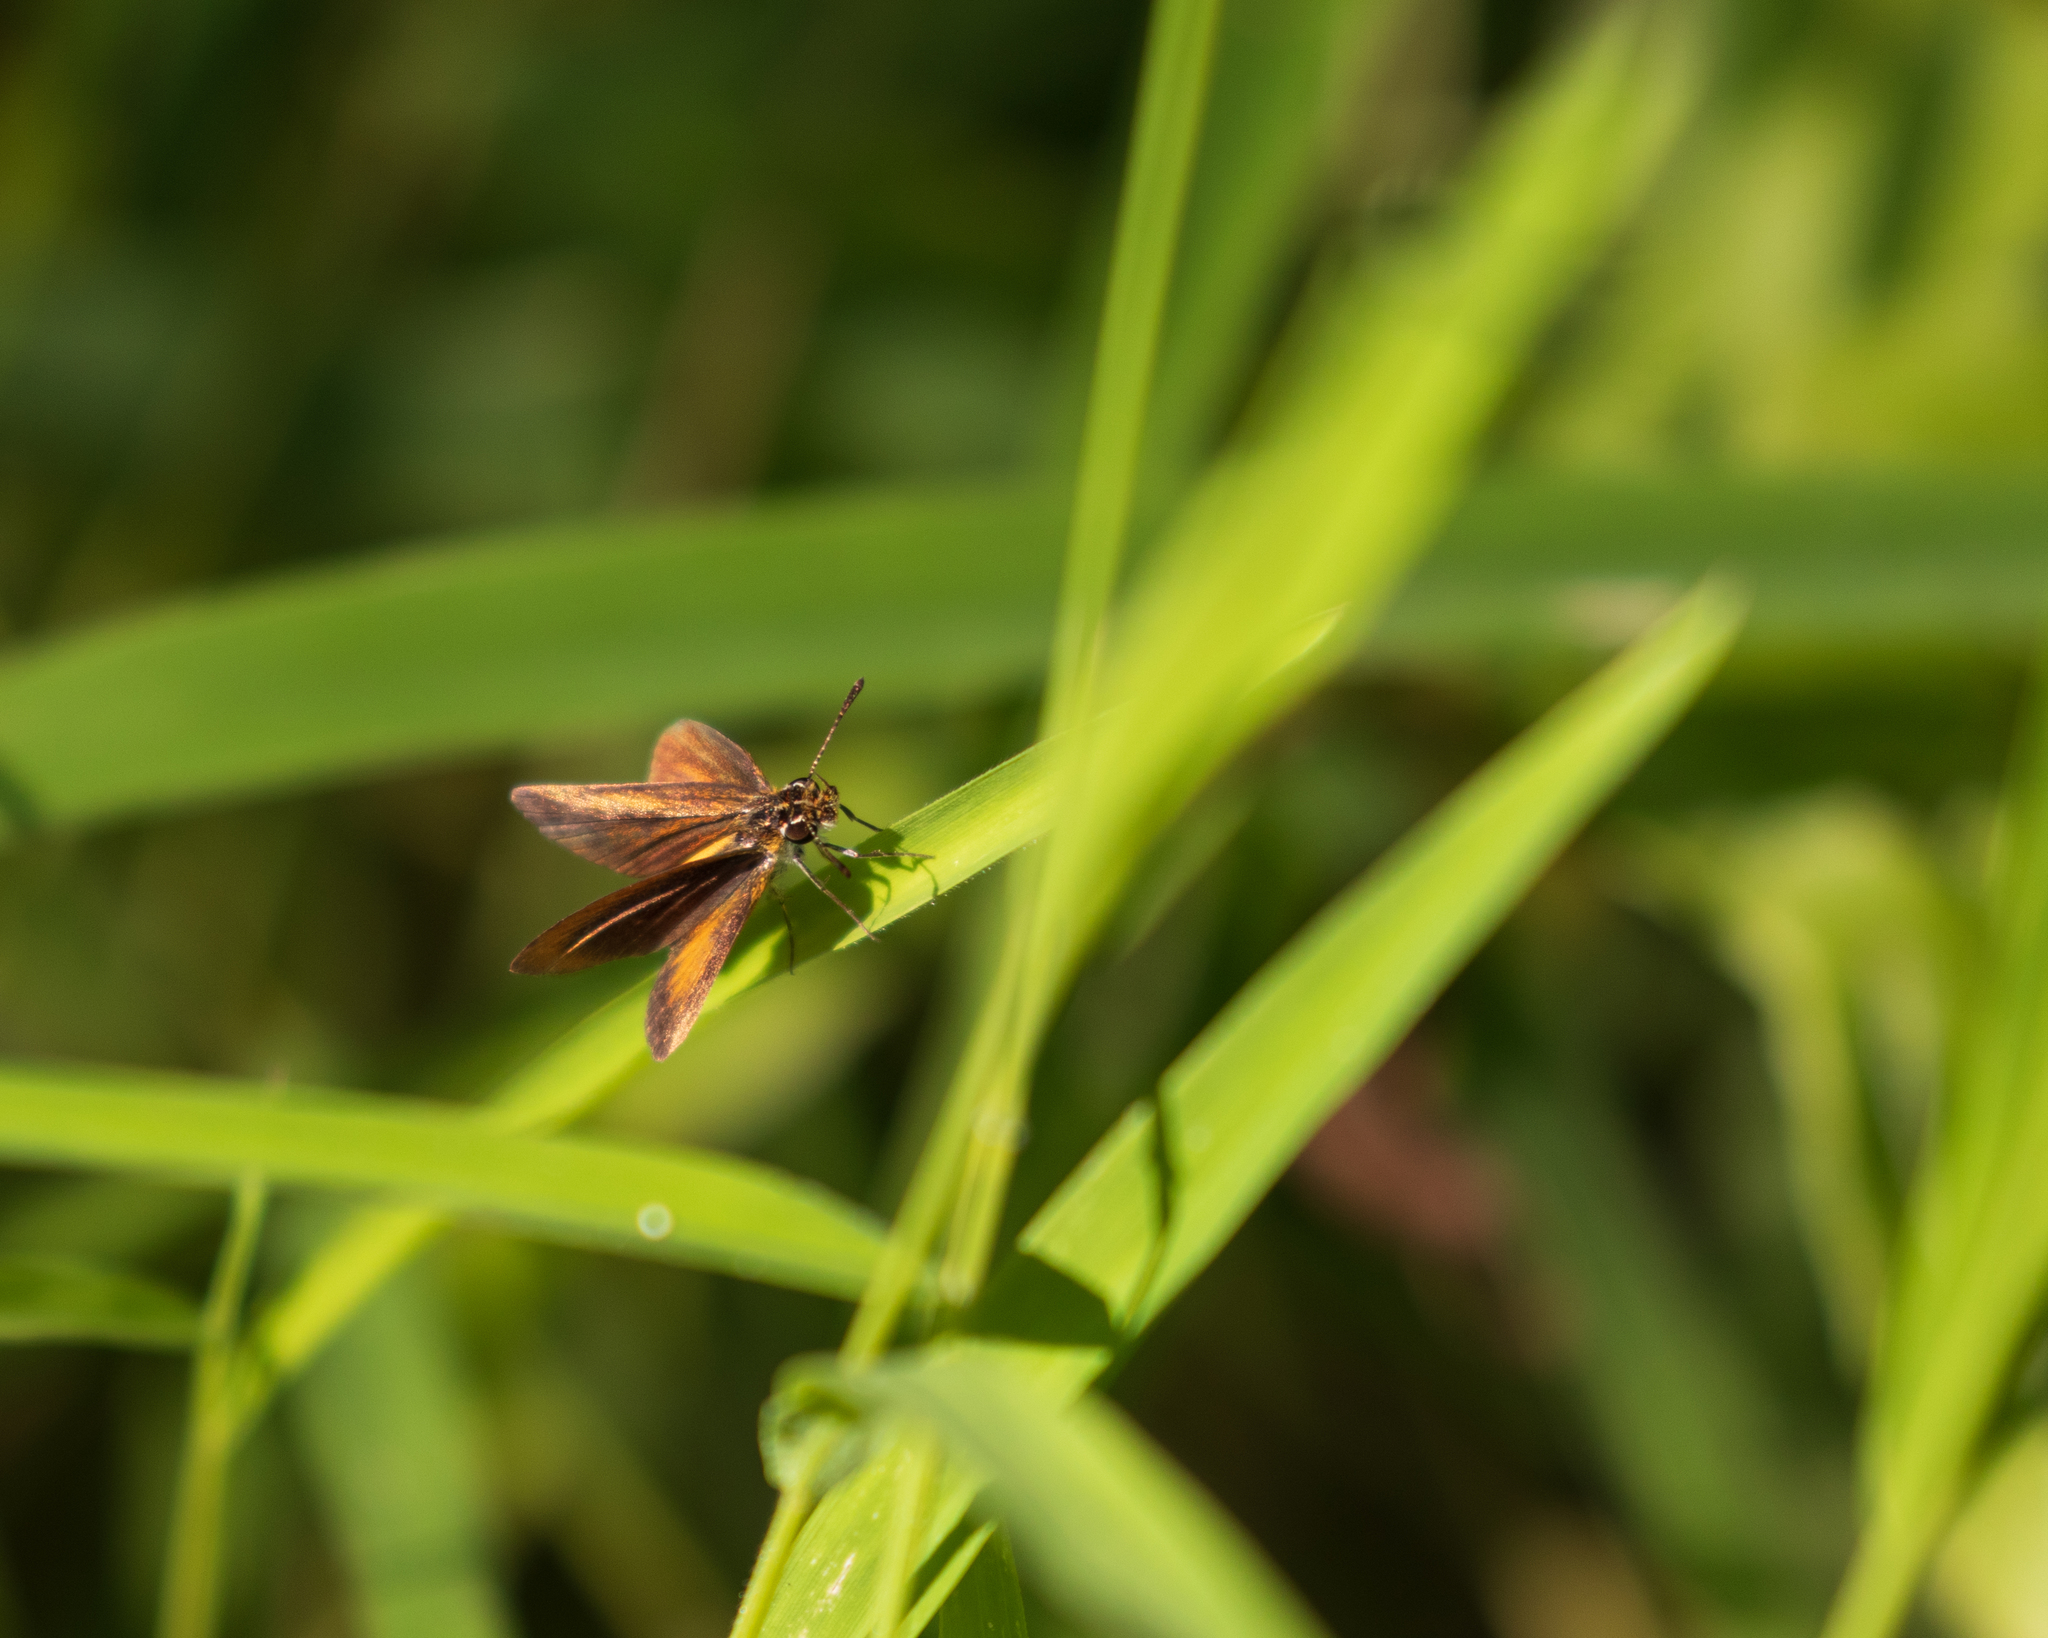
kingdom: Animalia
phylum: Arthropoda
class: Insecta
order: Lepidoptera
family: Hesperiidae
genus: Ancyloxypha
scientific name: Ancyloxypha numitor
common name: Least skipper
